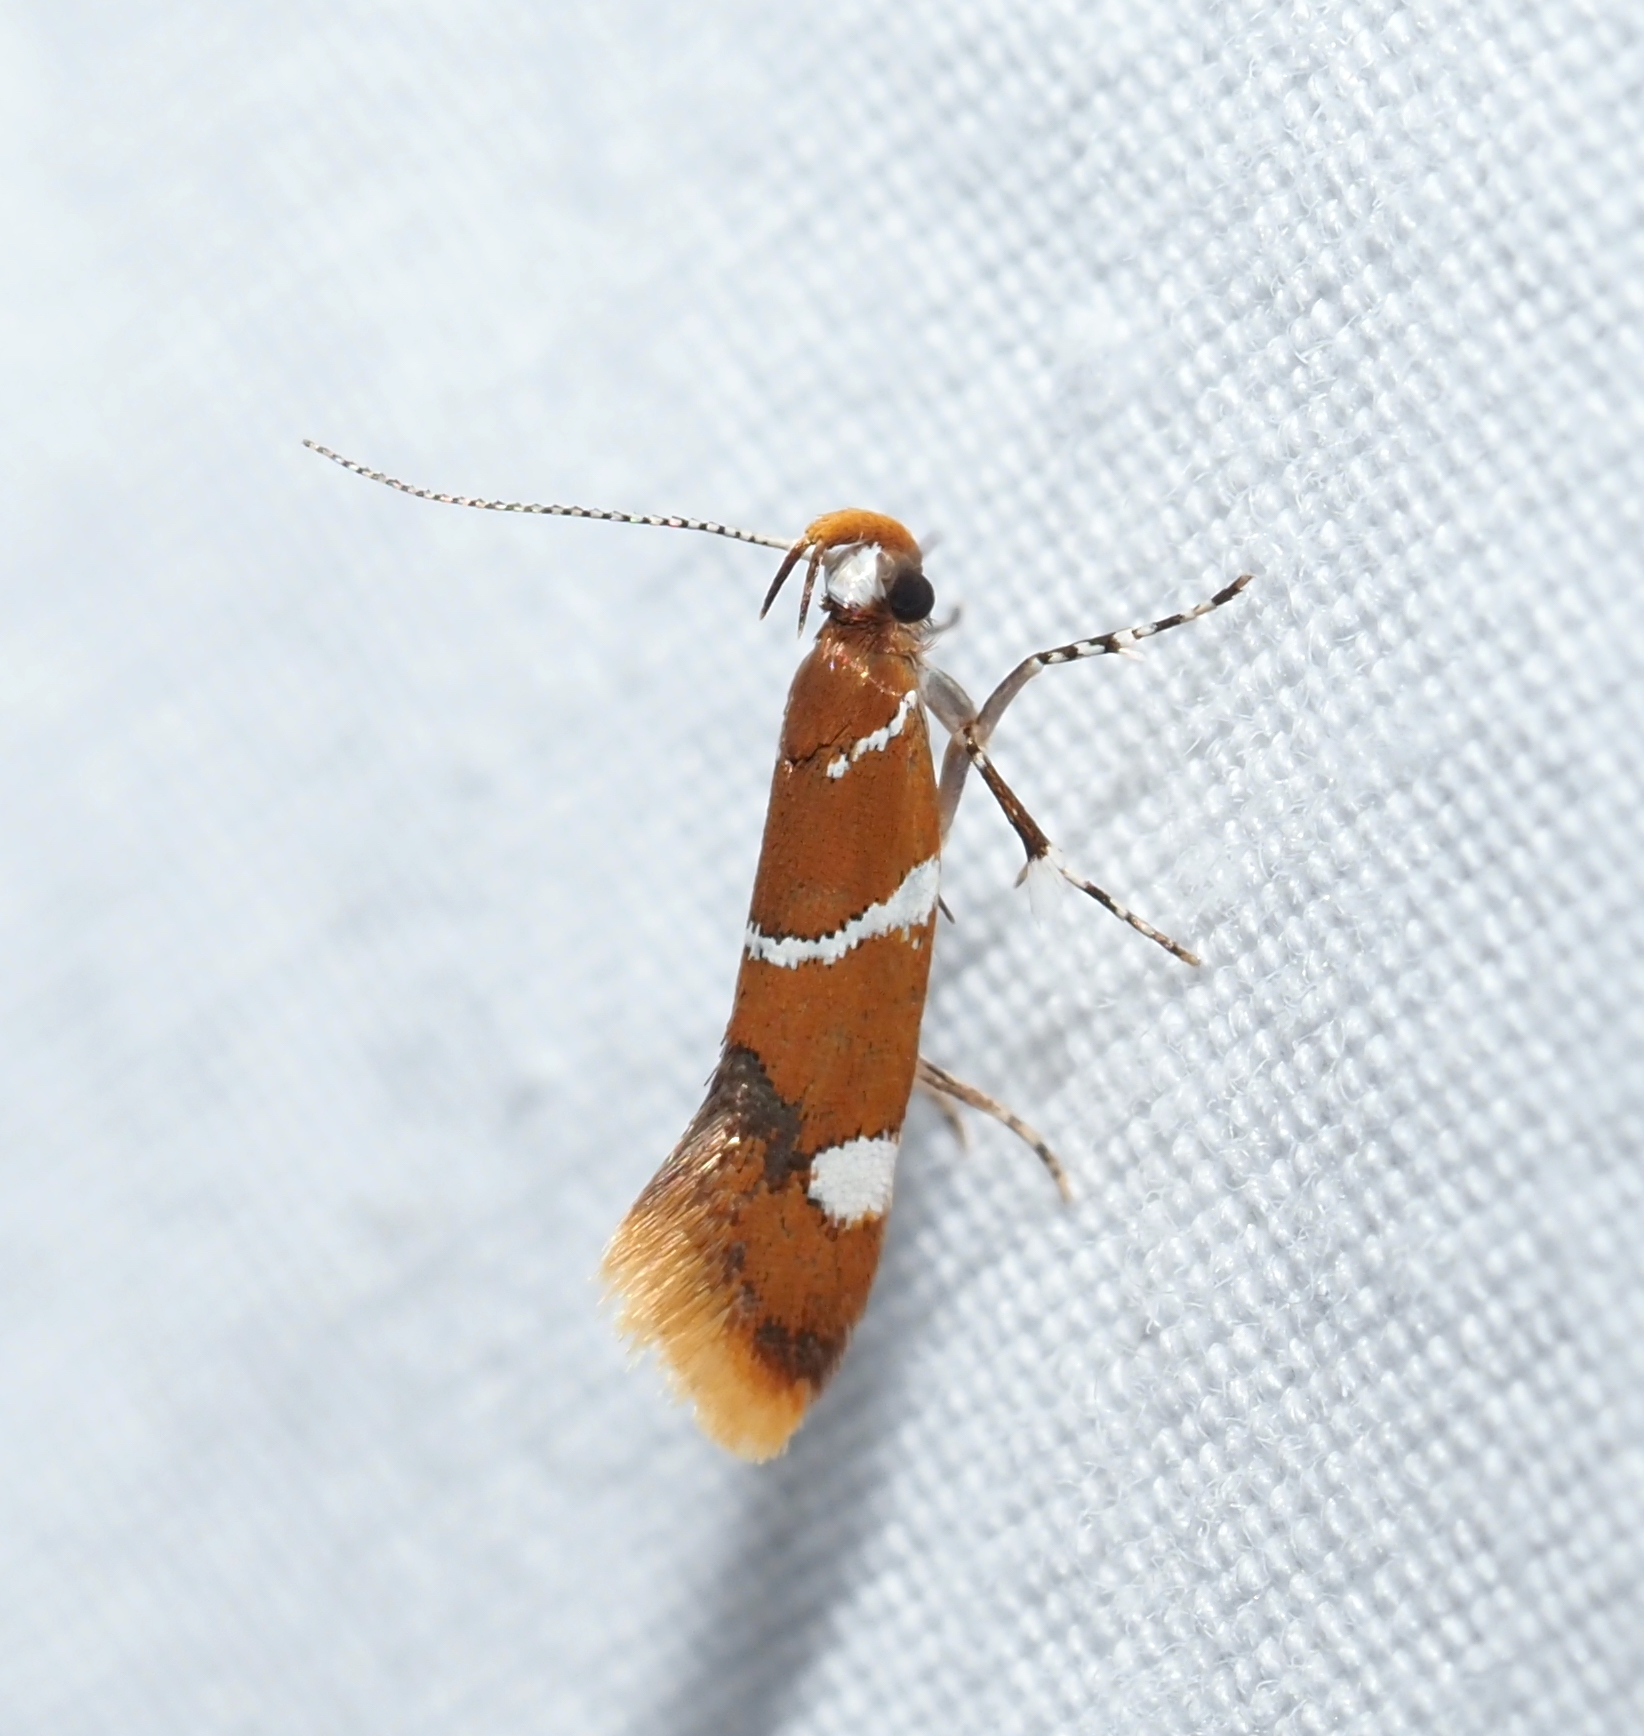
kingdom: Animalia
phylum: Arthropoda
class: Insecta
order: Lepidoptera
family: Oecophoridae
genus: Promalactis
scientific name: Promalactis suzukiella
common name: Moth
